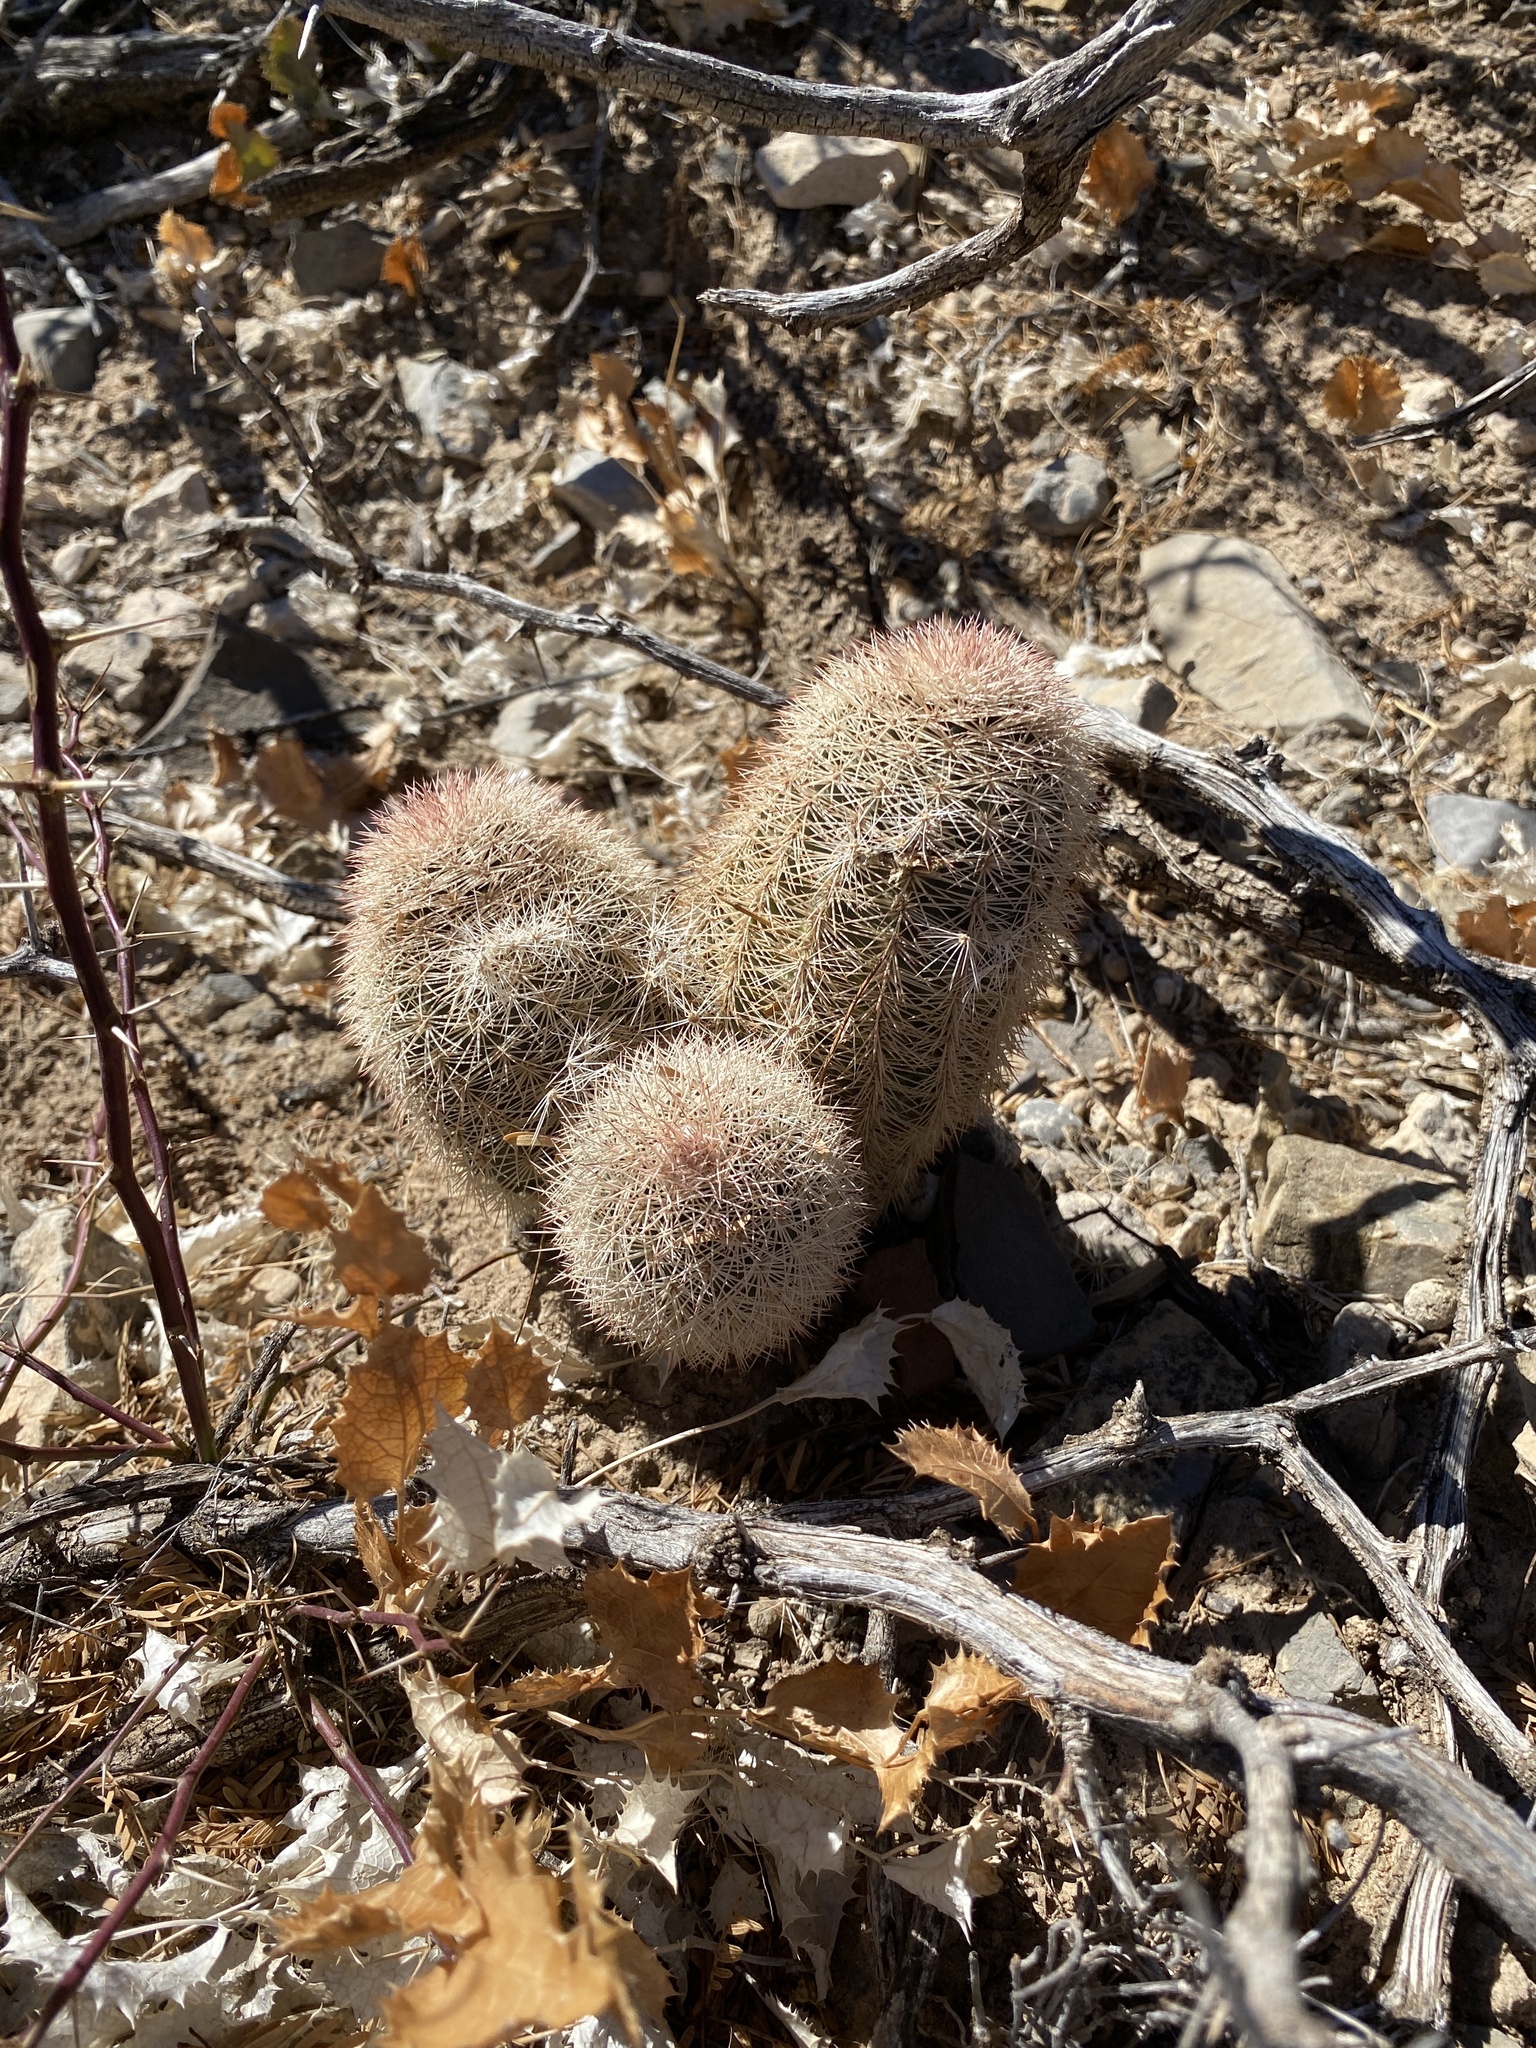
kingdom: Plantae
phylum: Tracheophyta
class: Magnoliopsida
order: Caryophyllales
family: Cactaceae
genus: Echinocereus
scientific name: Echinocereus dasyacanthus
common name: Spiny hedgehog cactus
